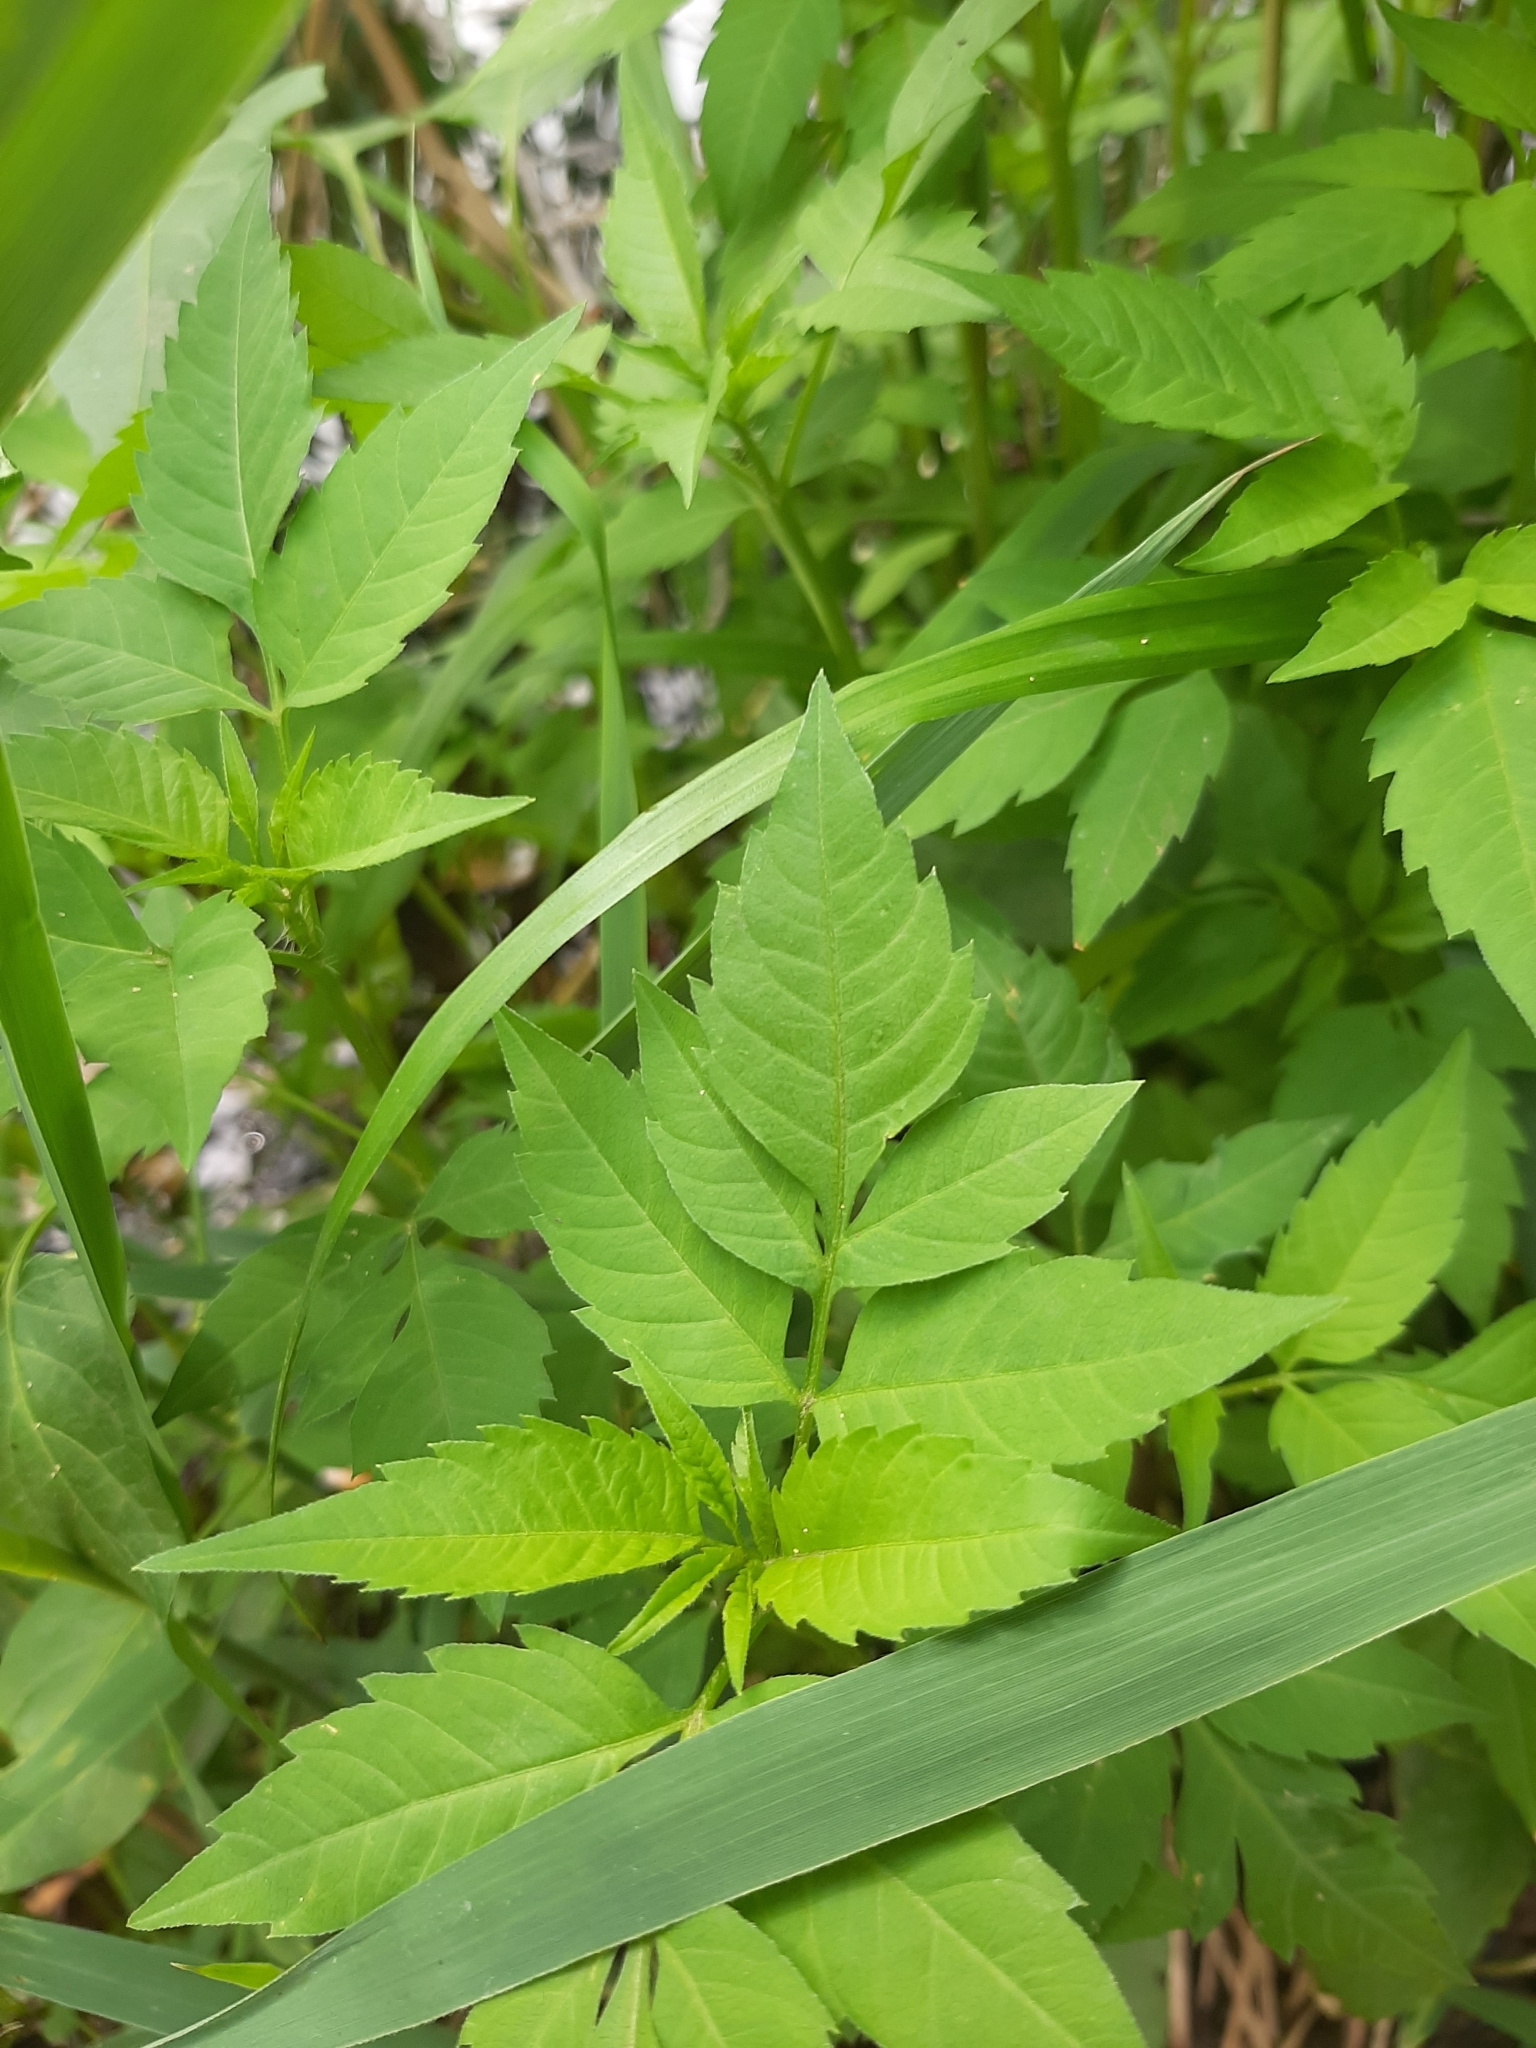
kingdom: Plantae
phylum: Tracheophyta
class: Magnoliopsida
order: Asterales
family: Asteraceae
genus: Bidens
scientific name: Bidens frondosa
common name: Beggarticks
